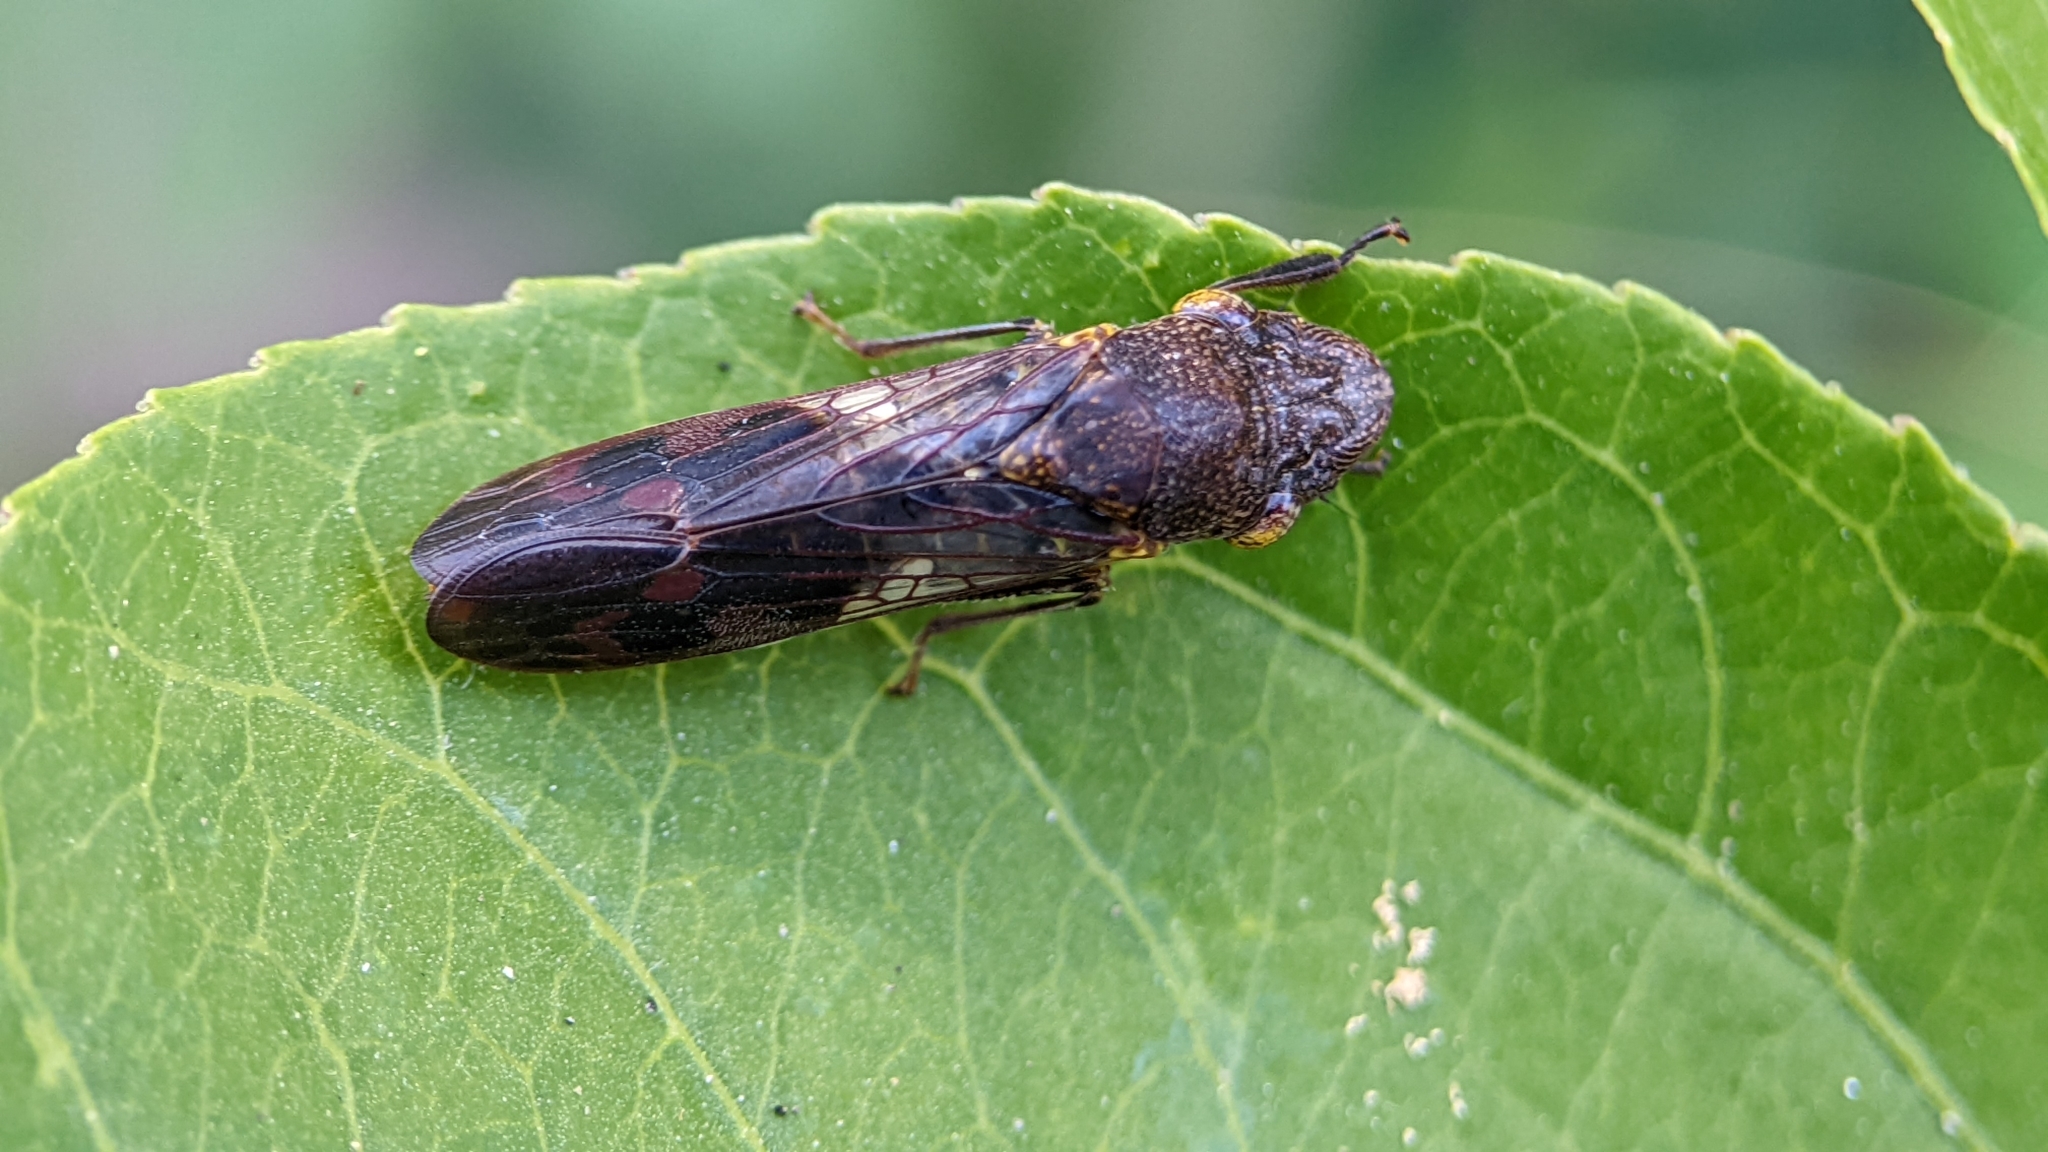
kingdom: Animalia
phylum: Arthropoda
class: Insecta
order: Hemiptera
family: Cicadellidae
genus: Homalodisca
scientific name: Homalodisca vitripennis
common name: Glassy-winged sharpshooter
